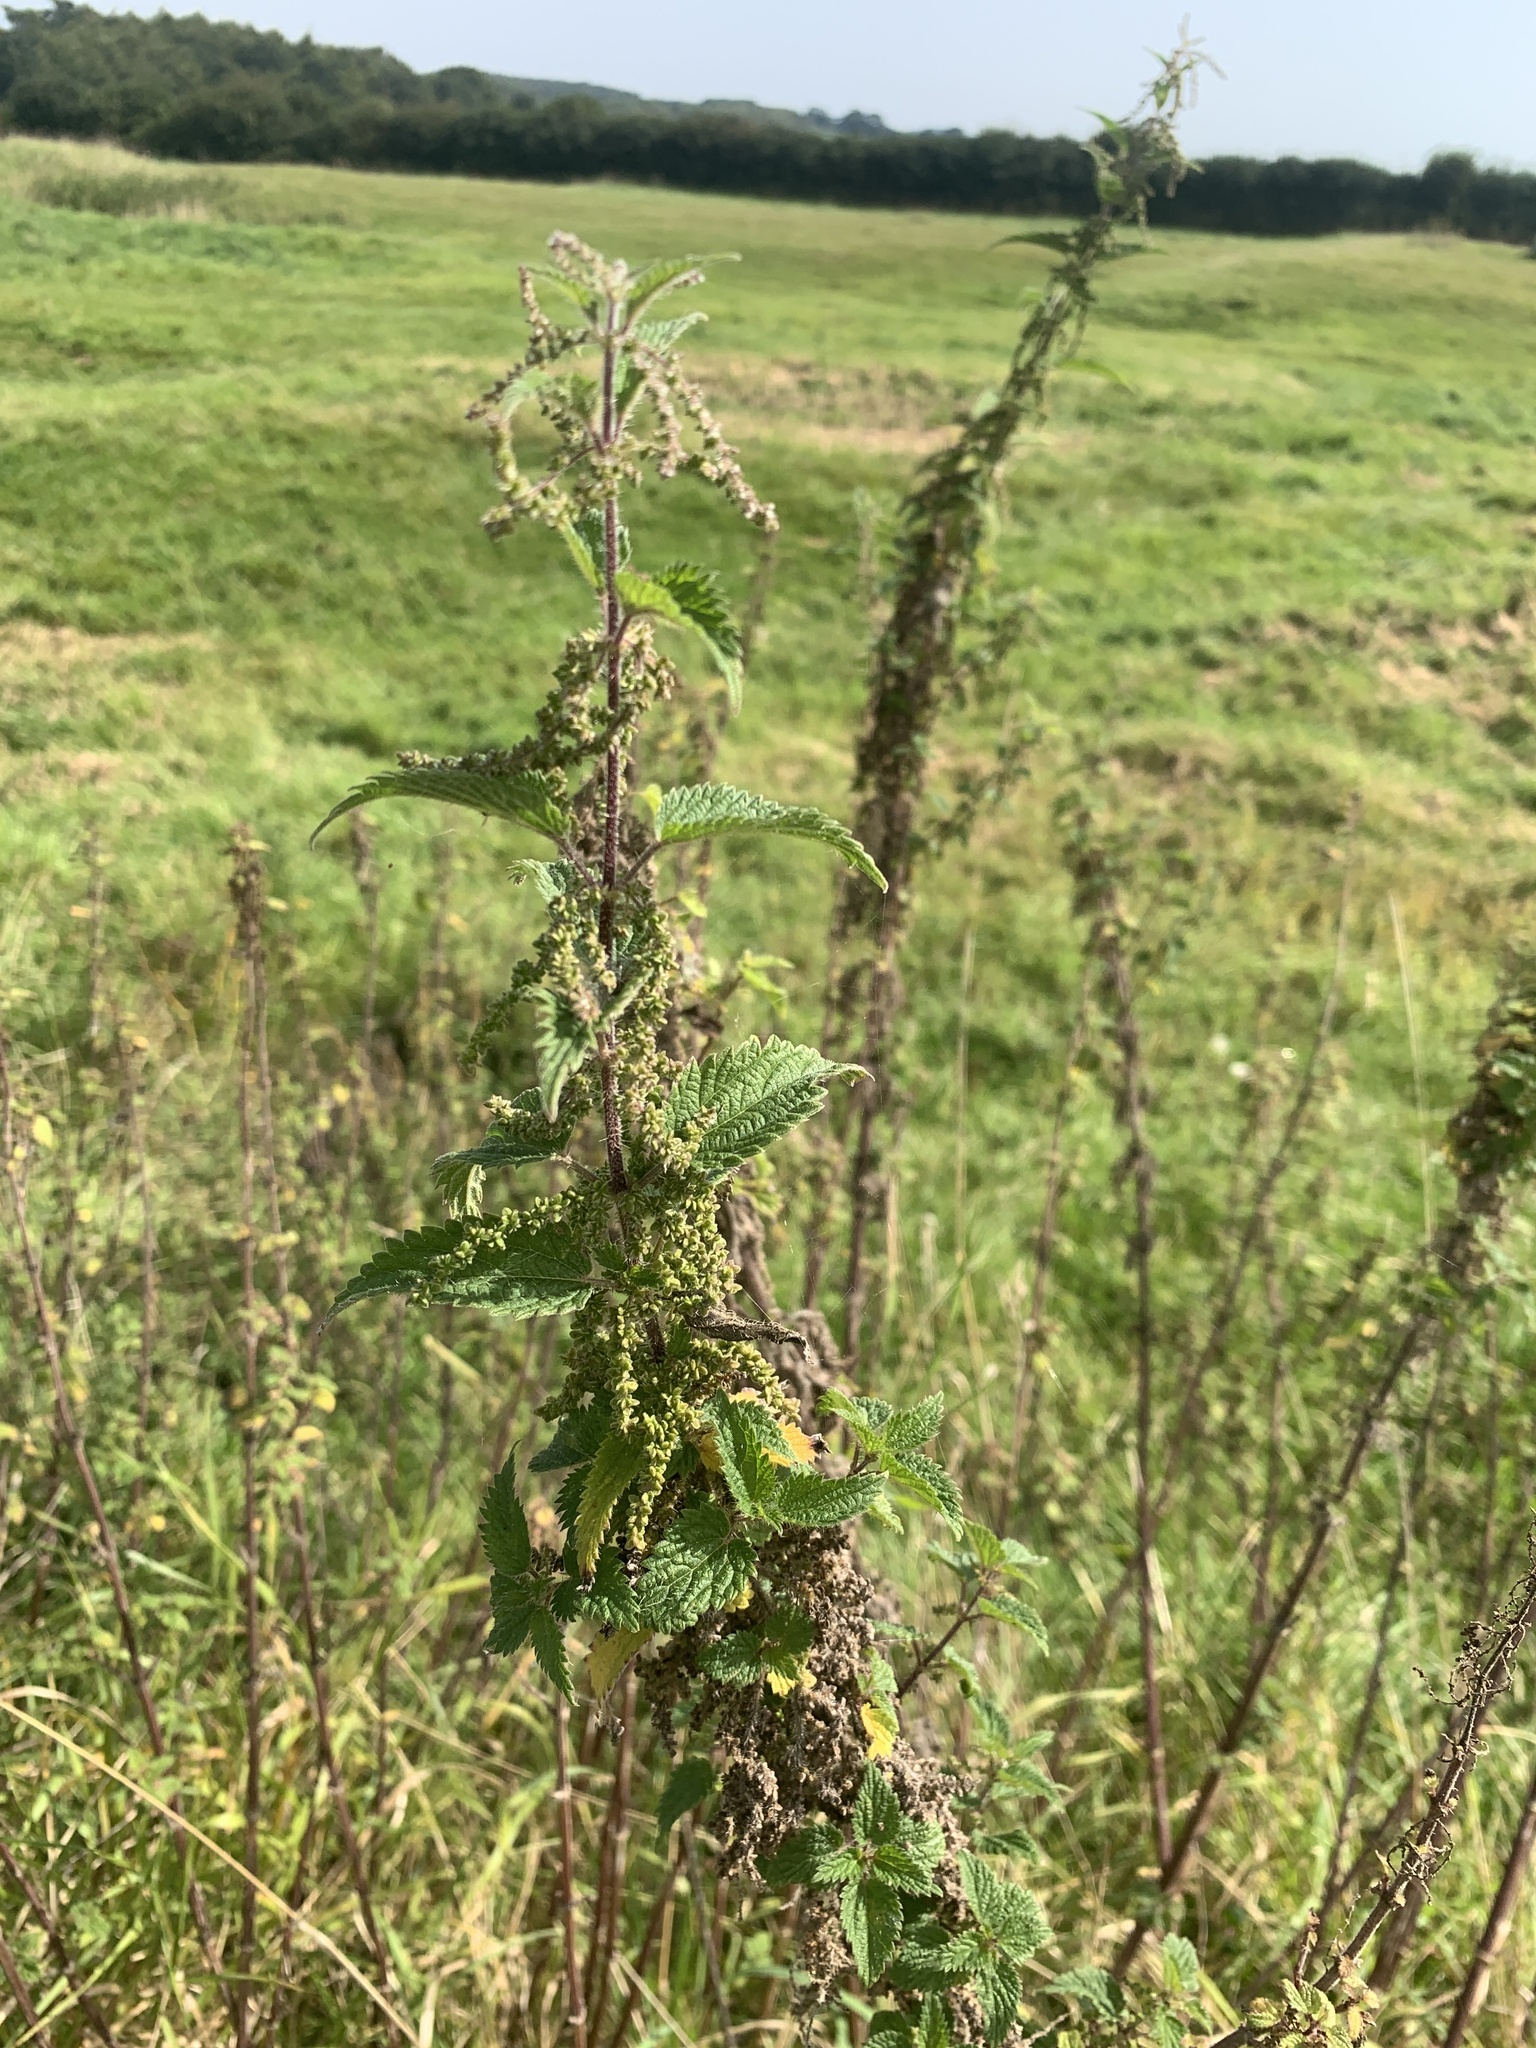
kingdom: Plantae
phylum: Tracheophyta
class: Magnoliopsida
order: Rosales
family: Urticaceae
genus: Urtica
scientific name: Urtica dioica
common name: Common nettle
